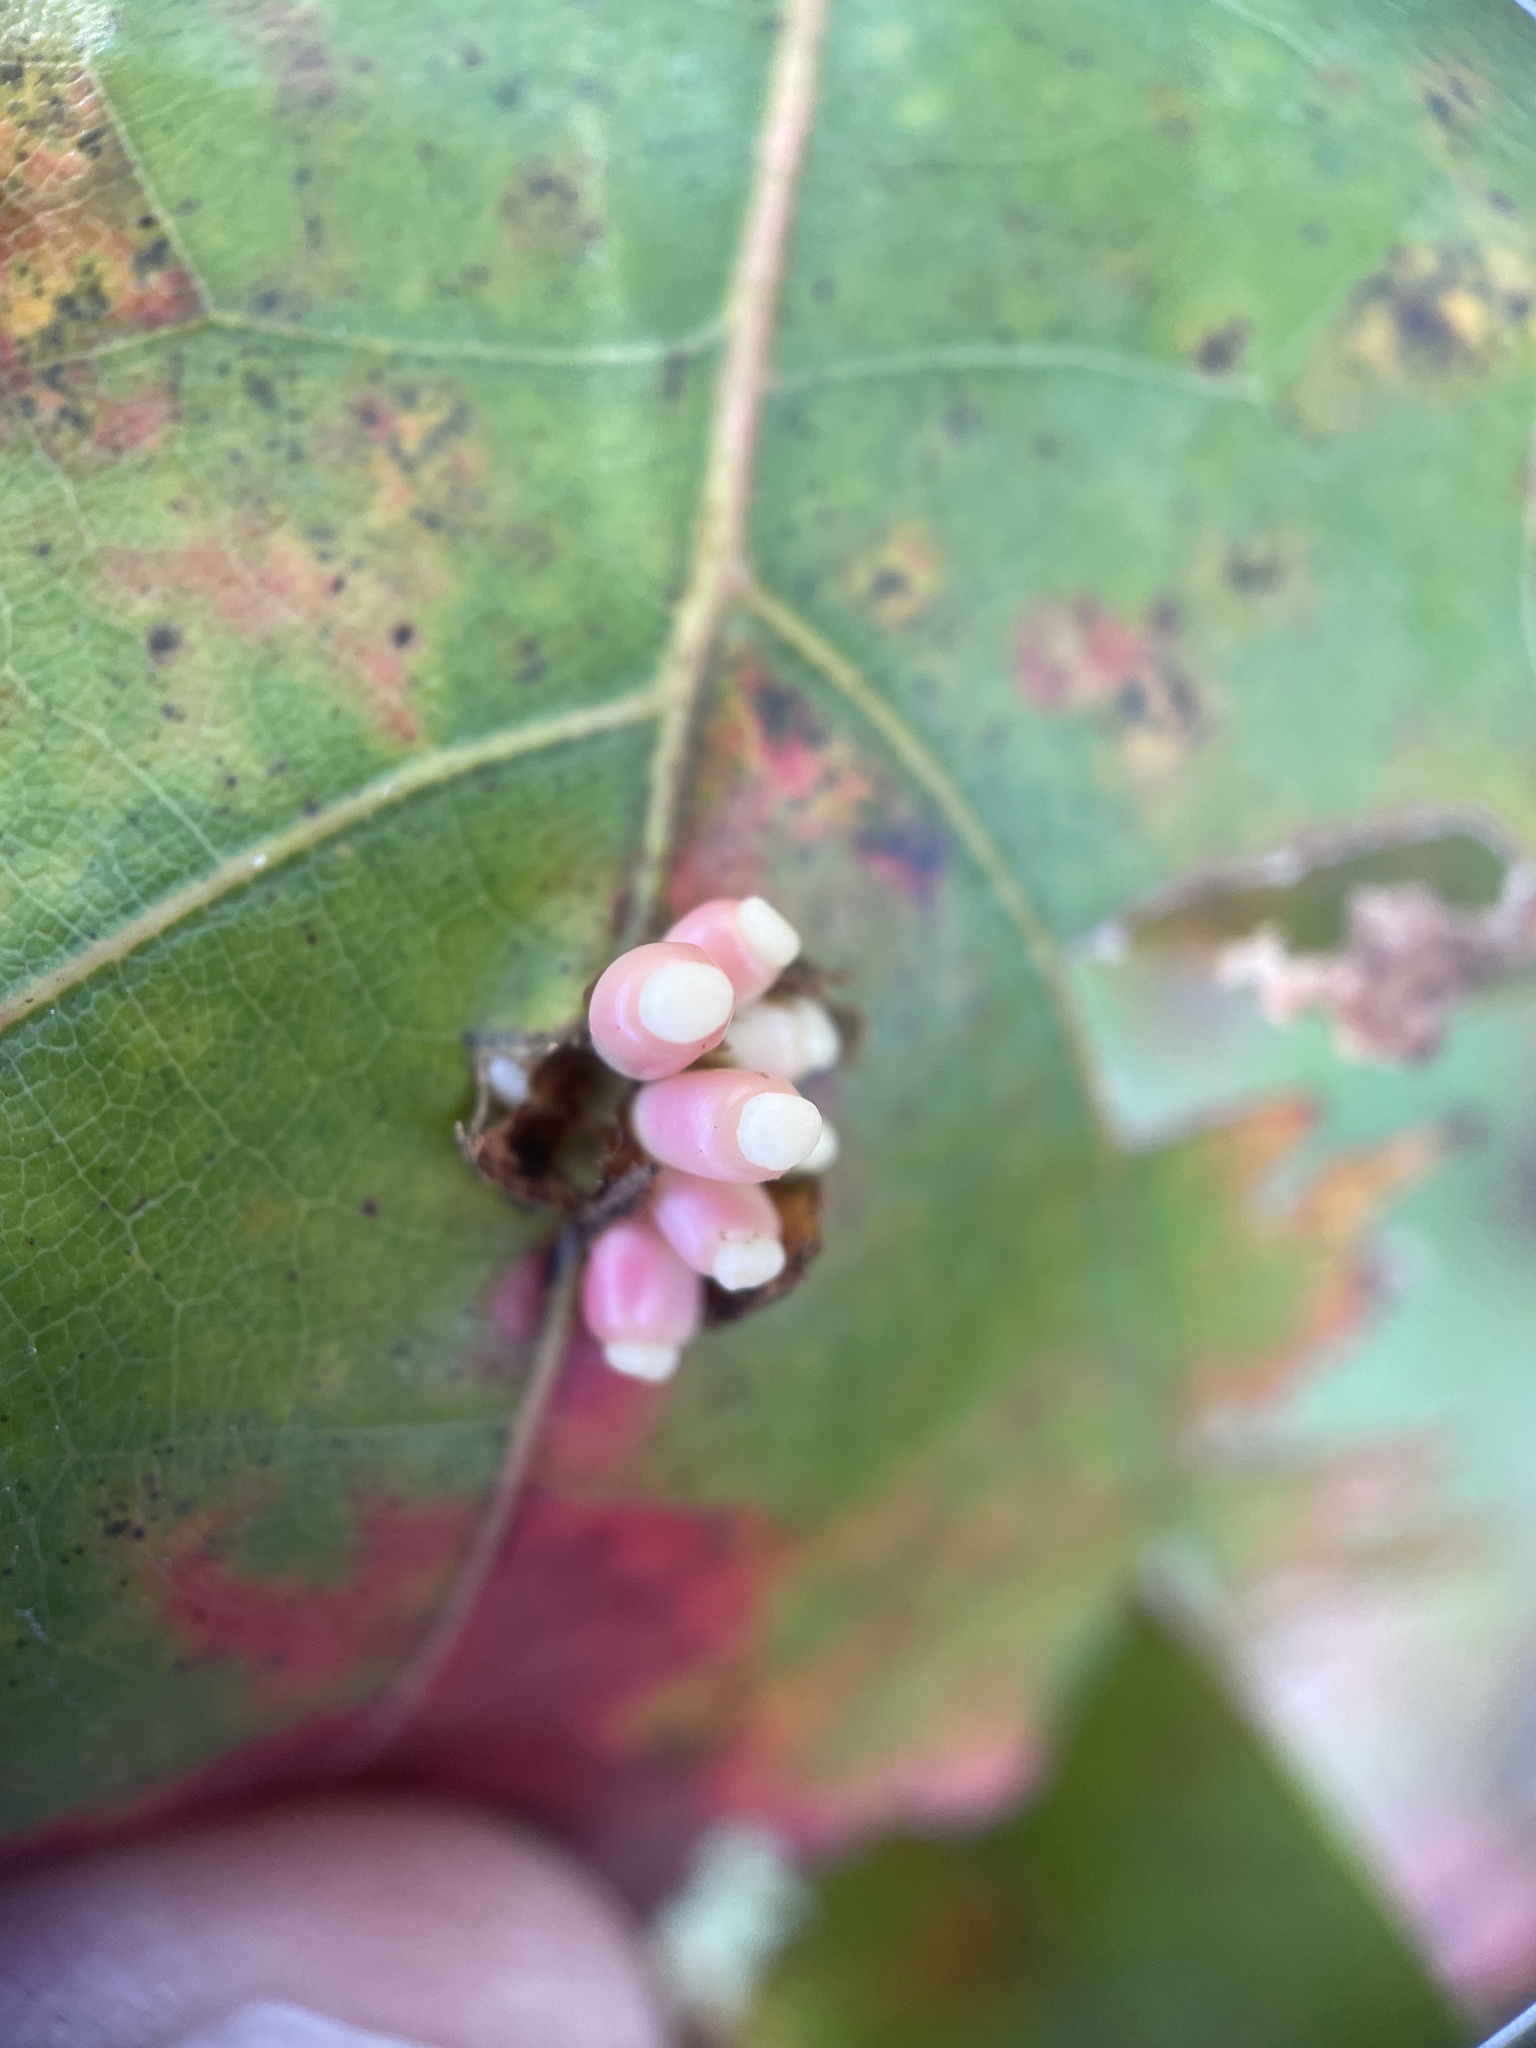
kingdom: Animalia
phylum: Arthropoda
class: Insecta
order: Hymenoptera
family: Cynipidae
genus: Kokkocynips
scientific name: Kokkocynips decidua
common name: Oak wheat gall
